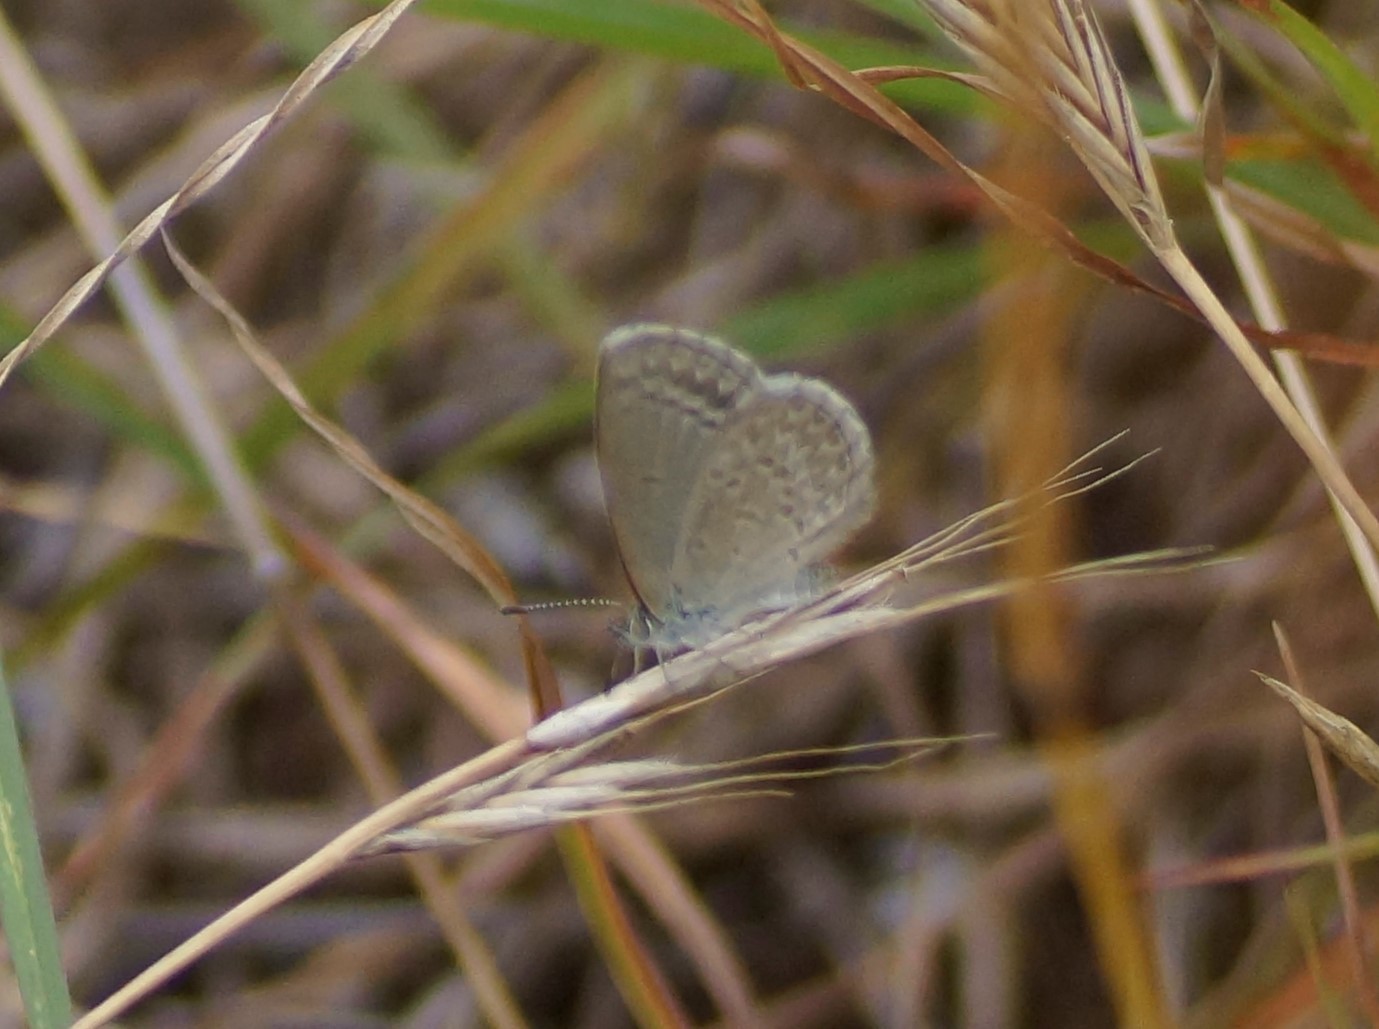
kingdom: Animalia
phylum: Arthropoda
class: Insecta
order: Lepidoptera
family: Lycaenidae
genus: Zizina
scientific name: Zizina labradus
